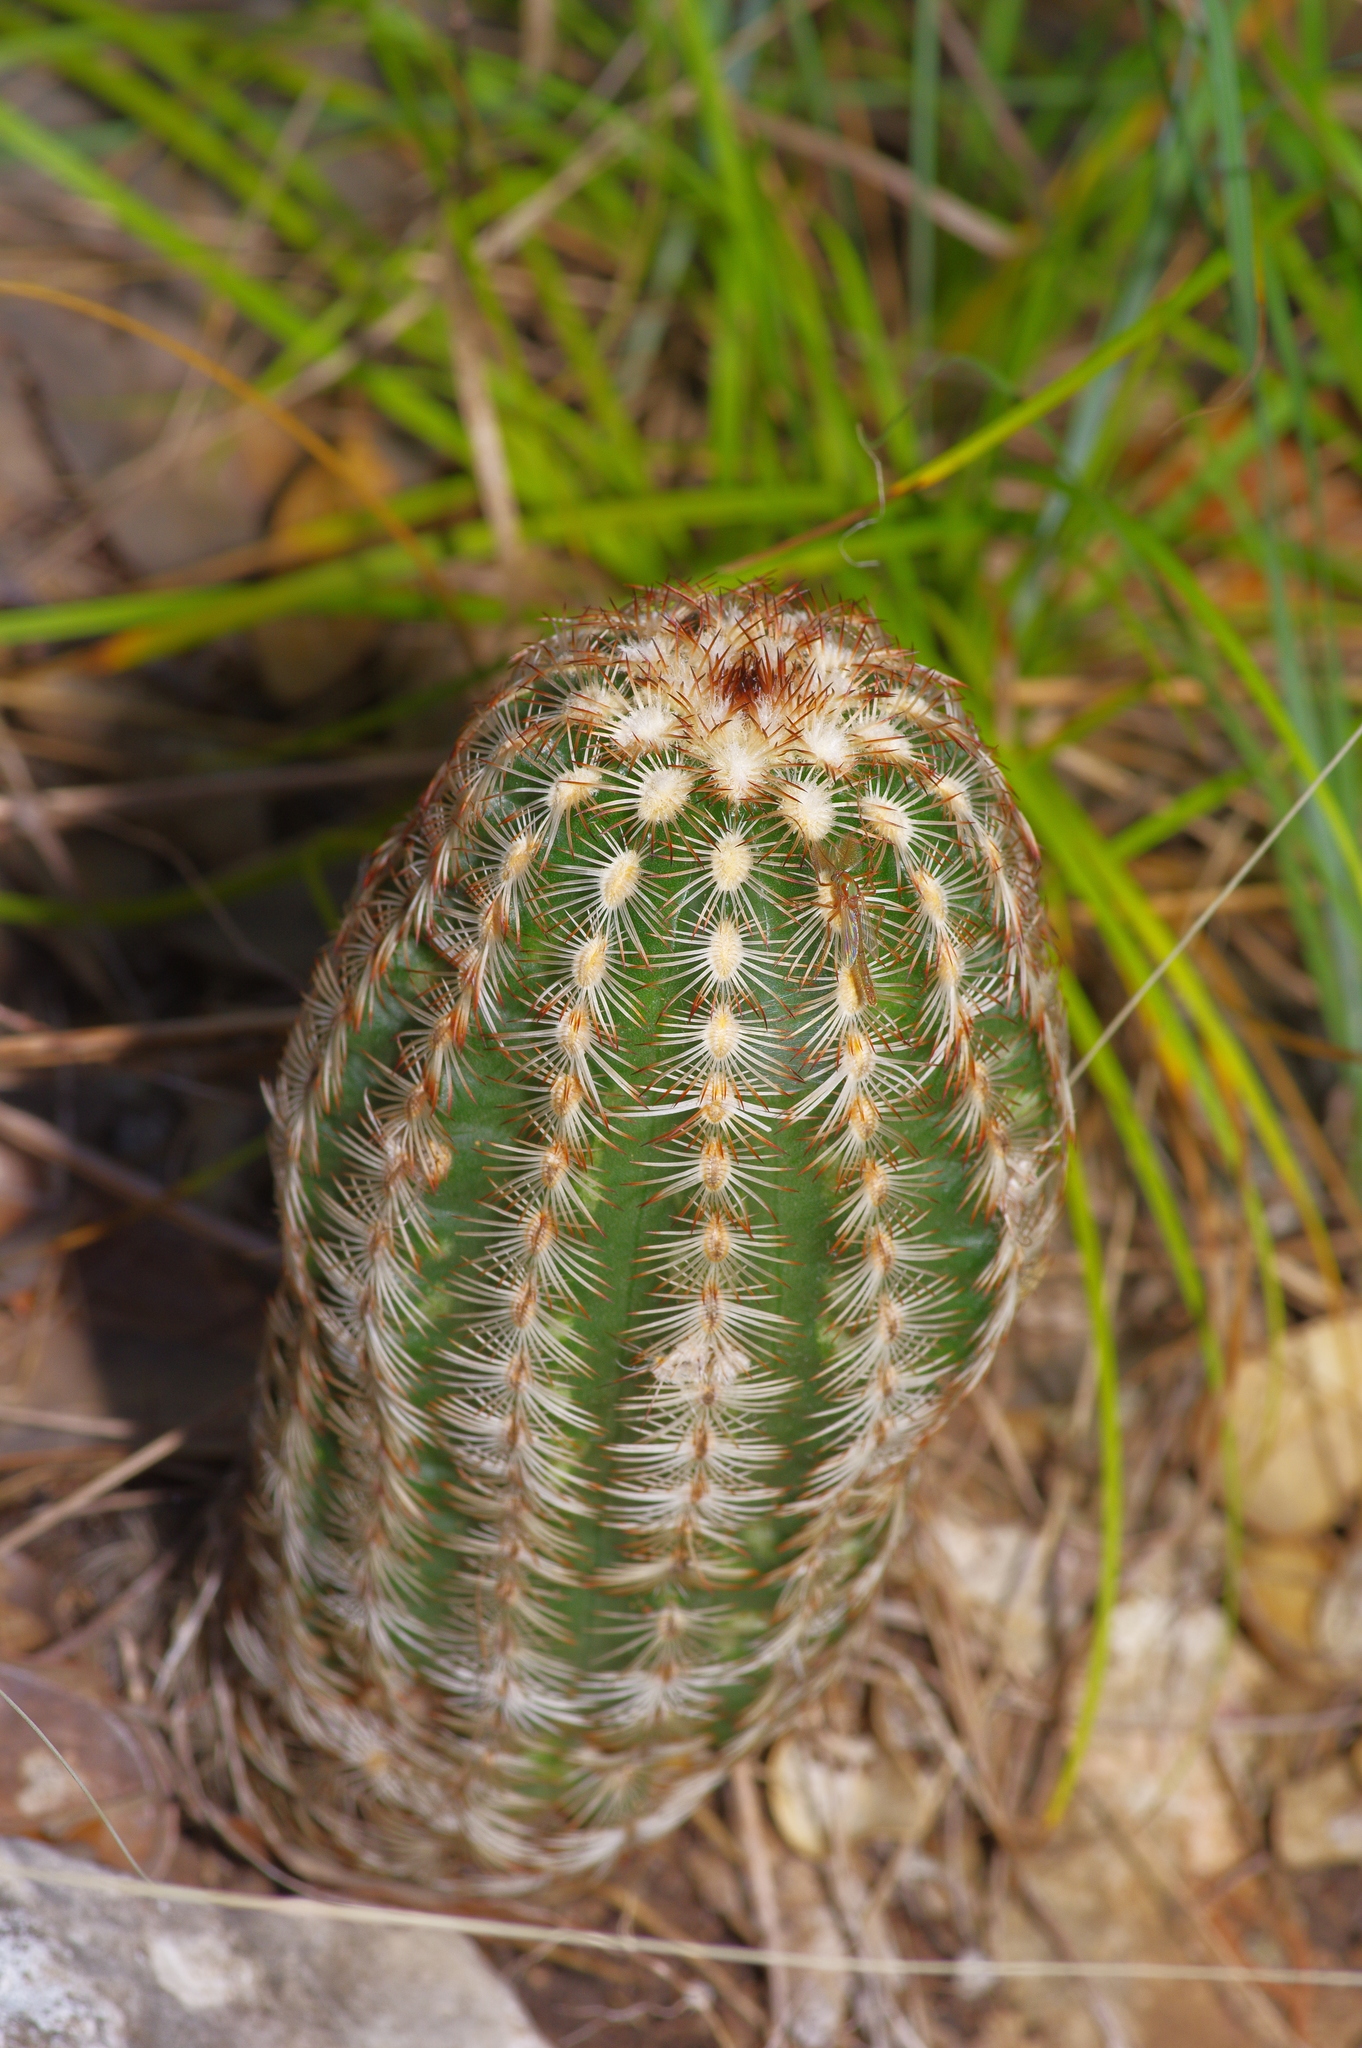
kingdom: Plantae
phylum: Tracheophyta
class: Magnoliopsida
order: Caryophyllales
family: Cactaceae
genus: Echinocereus
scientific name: Echinocereus reichenbachii
